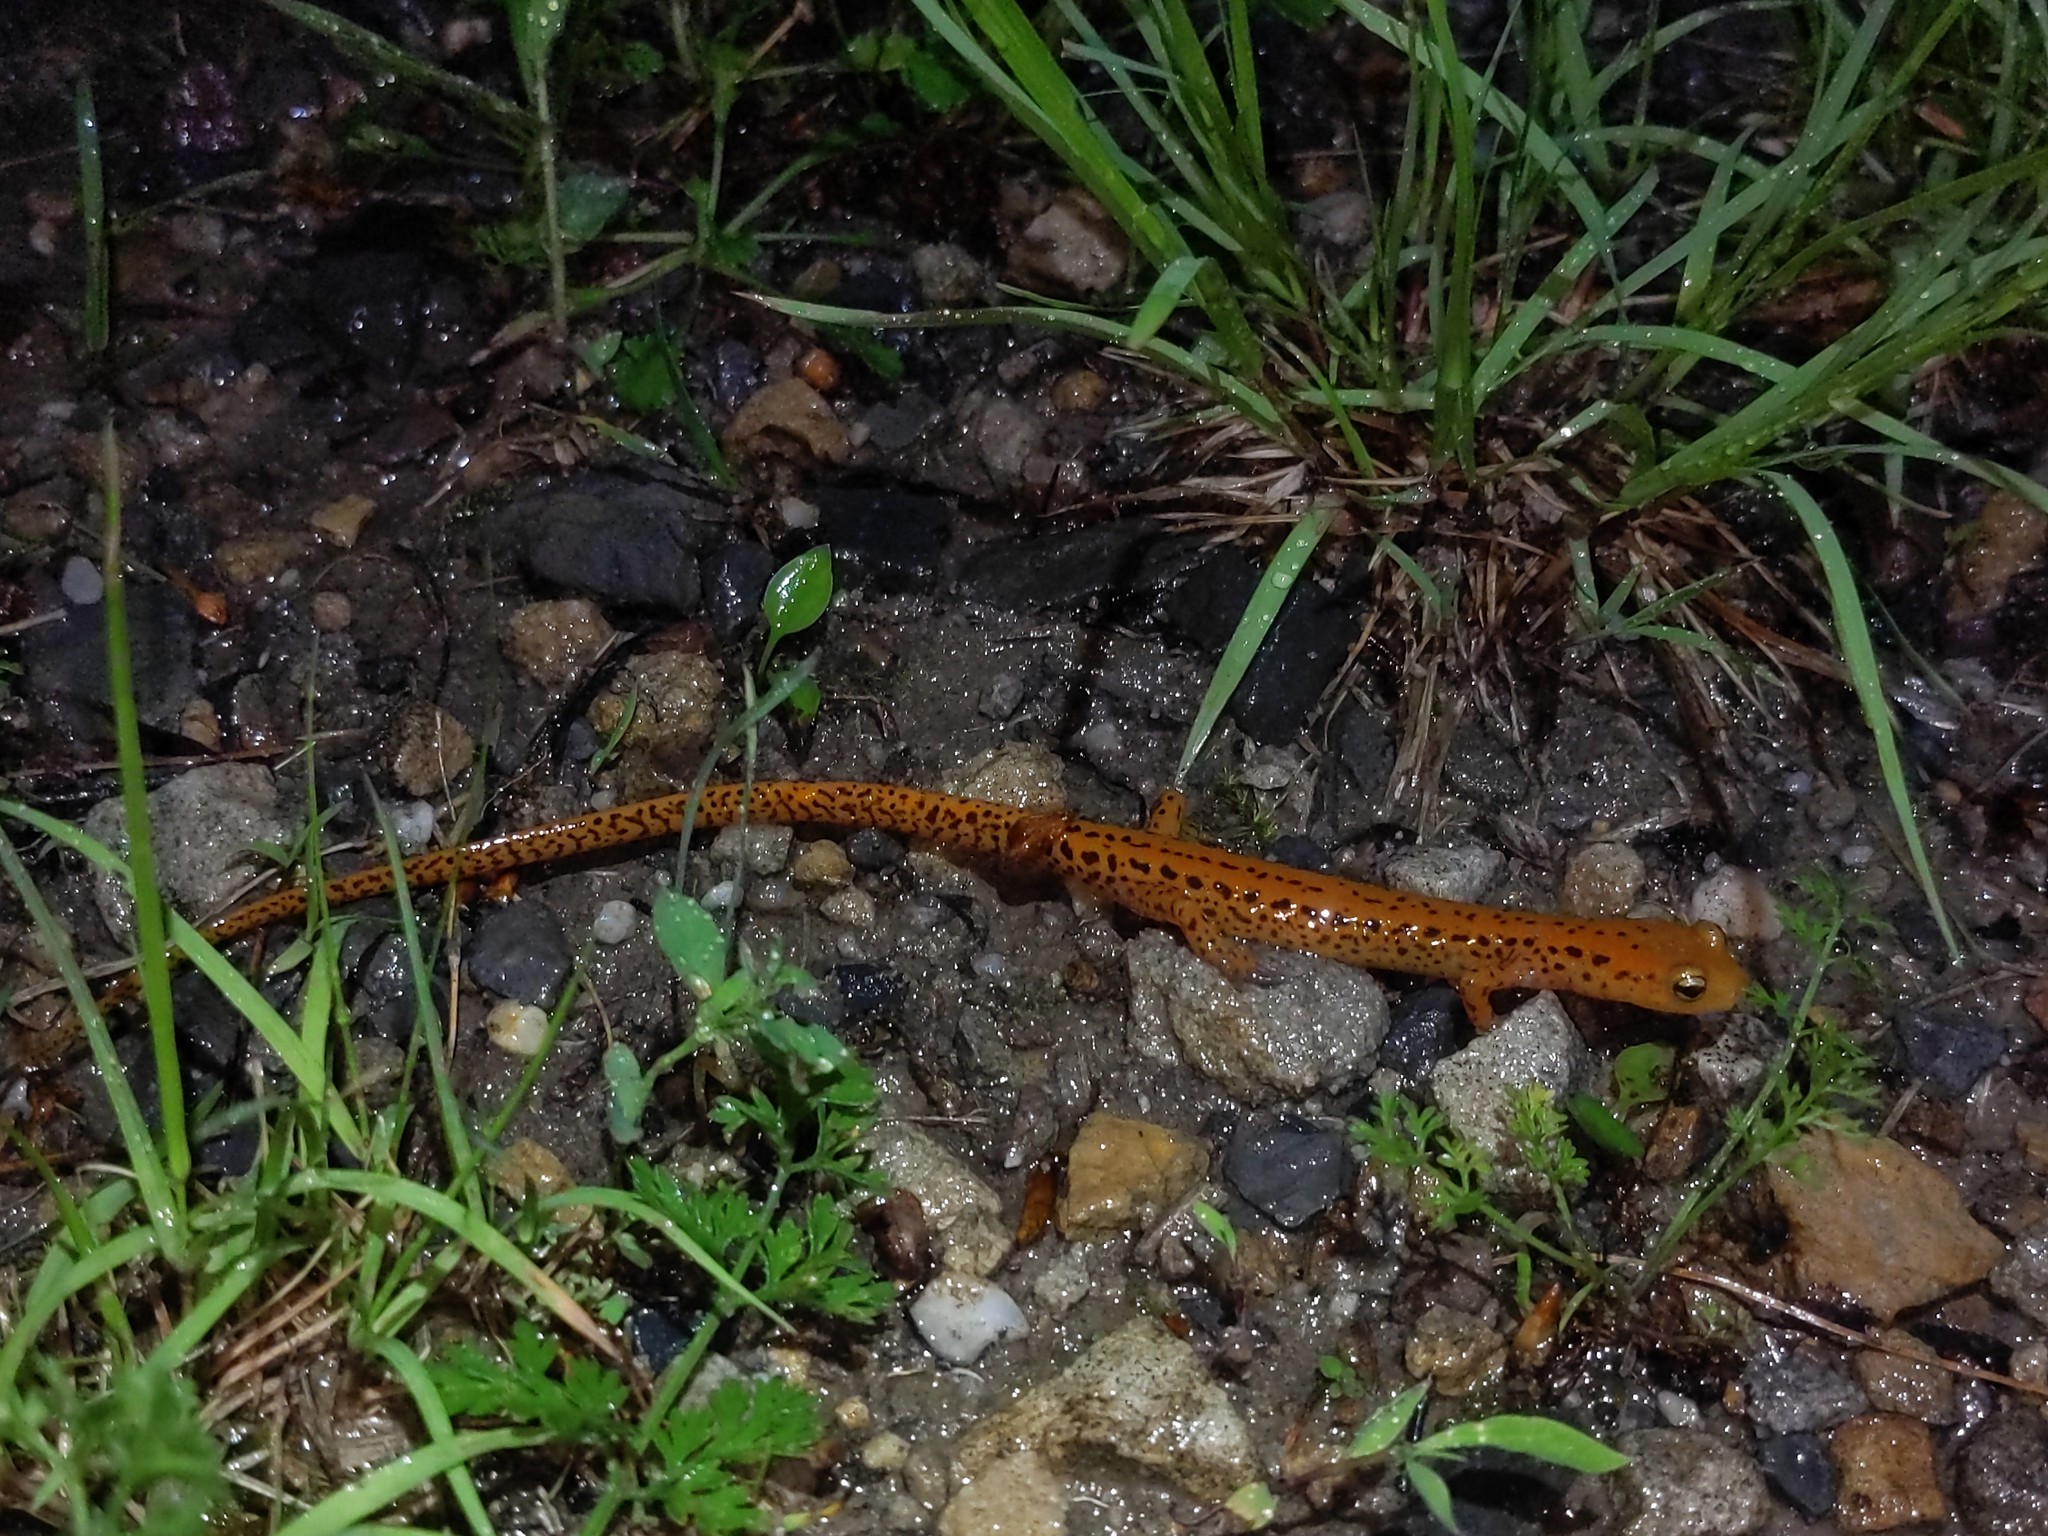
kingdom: Animalia
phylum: Chordata
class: Amphibia
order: Caudata
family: Plethodontidae
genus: Eurycea
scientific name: Eurycea longicauda
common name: Long-tailed salamander
